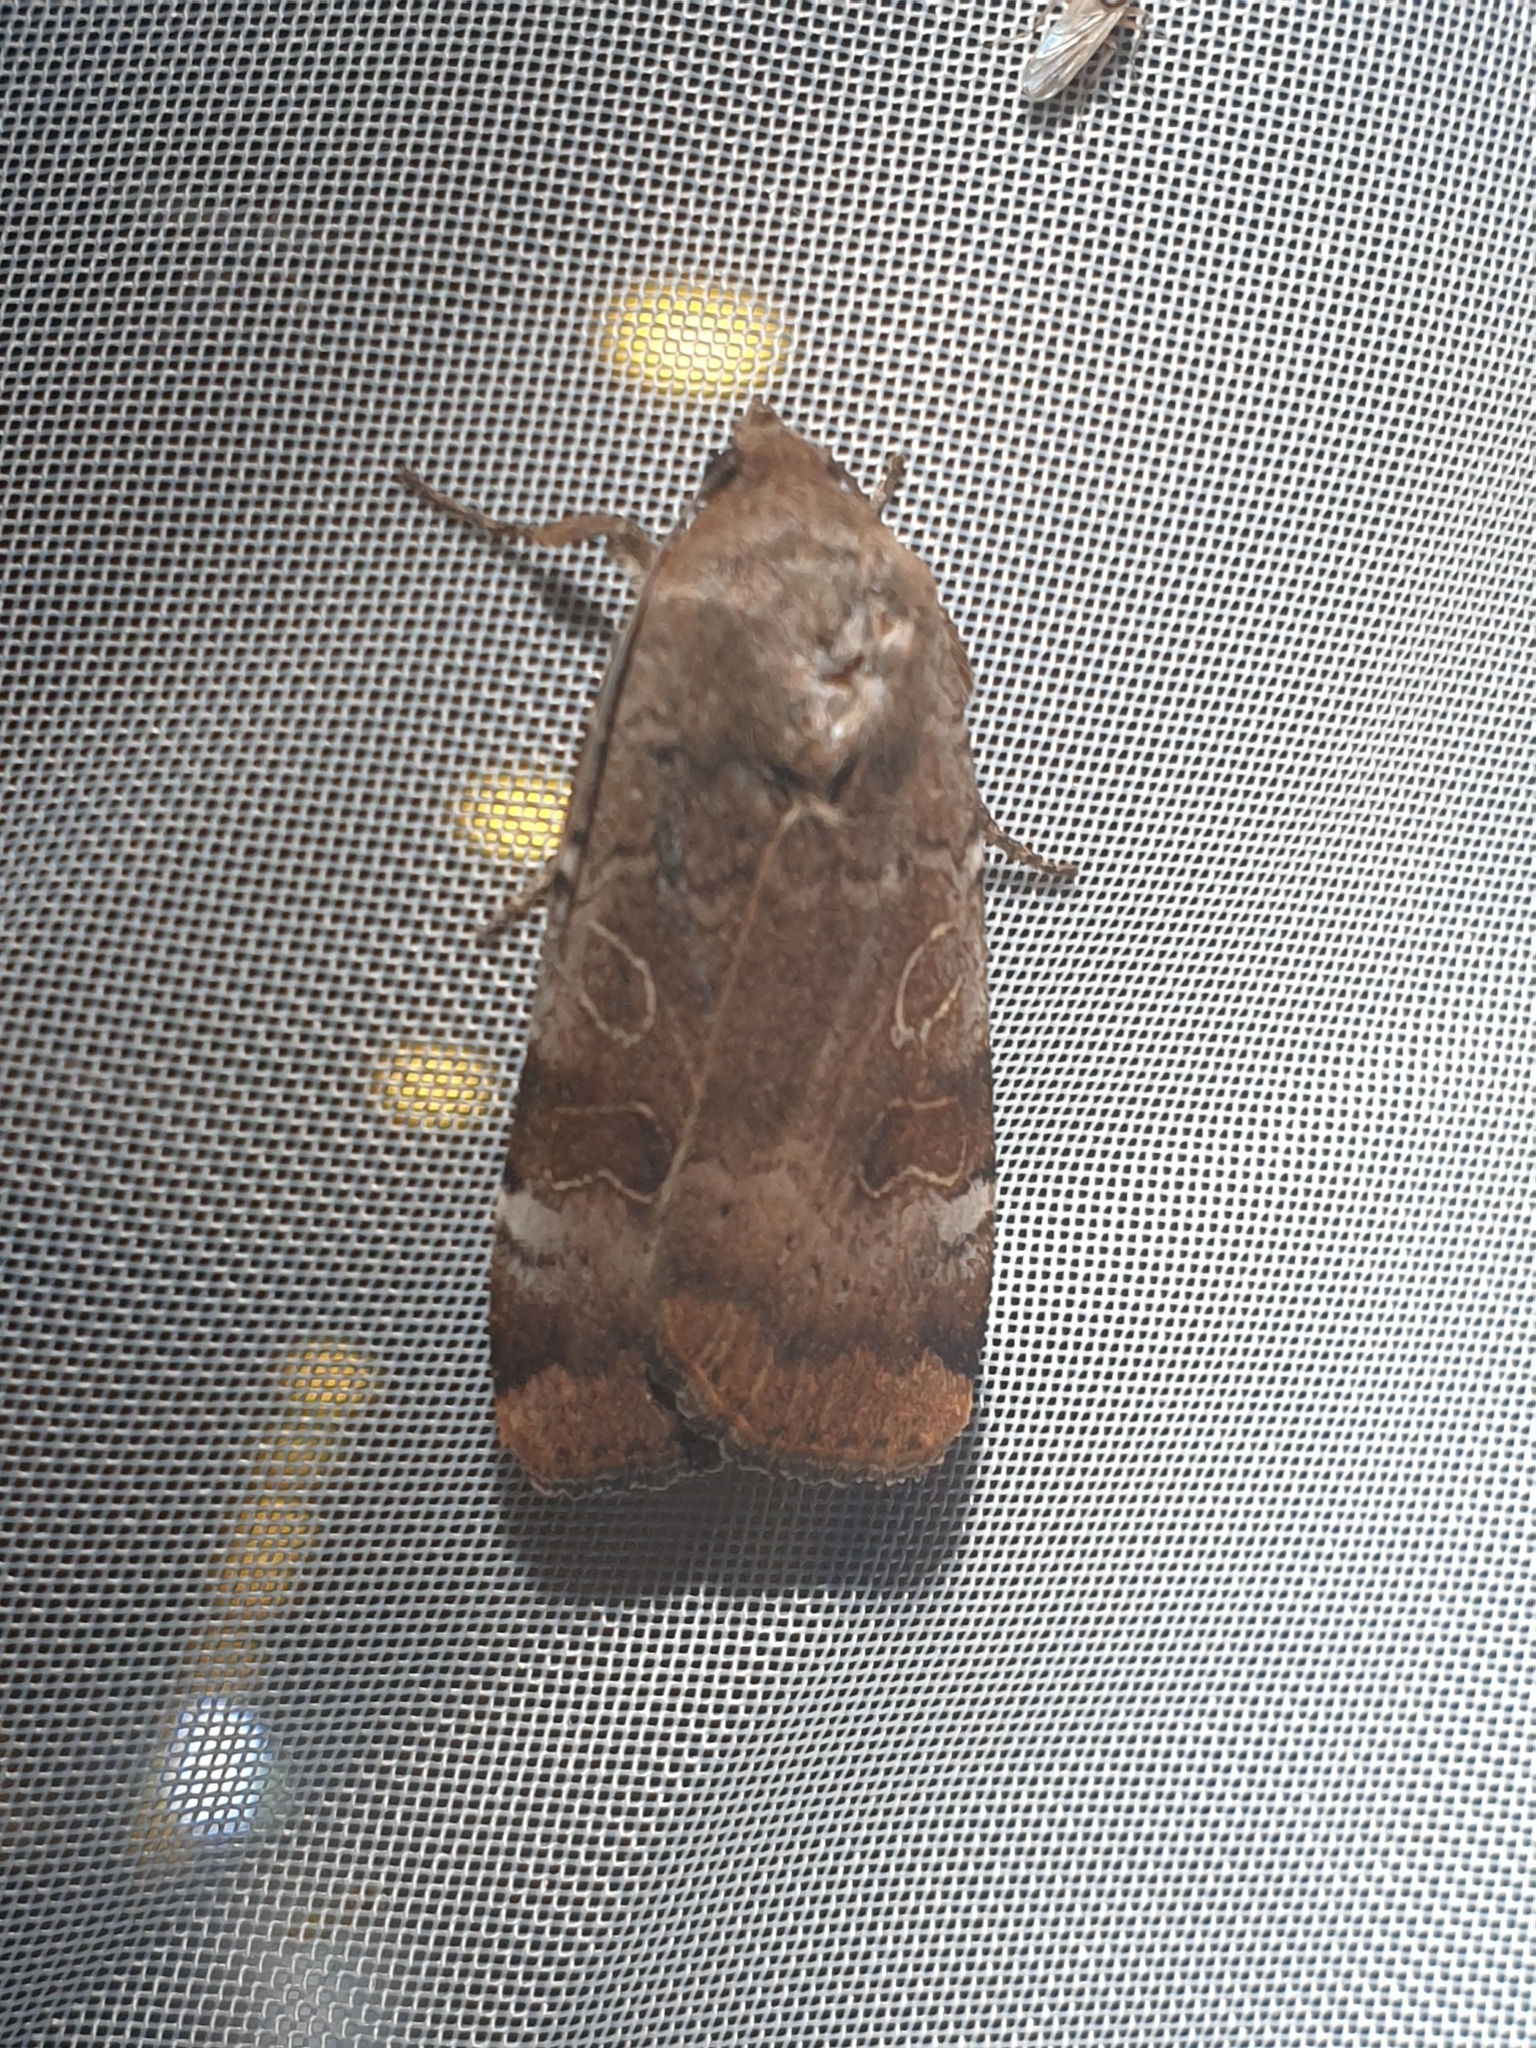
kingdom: Animalia
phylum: Arthropoda
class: Insecta
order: Lepidoptera
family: Noctuidae
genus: Noctua
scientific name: Noctua interposita
